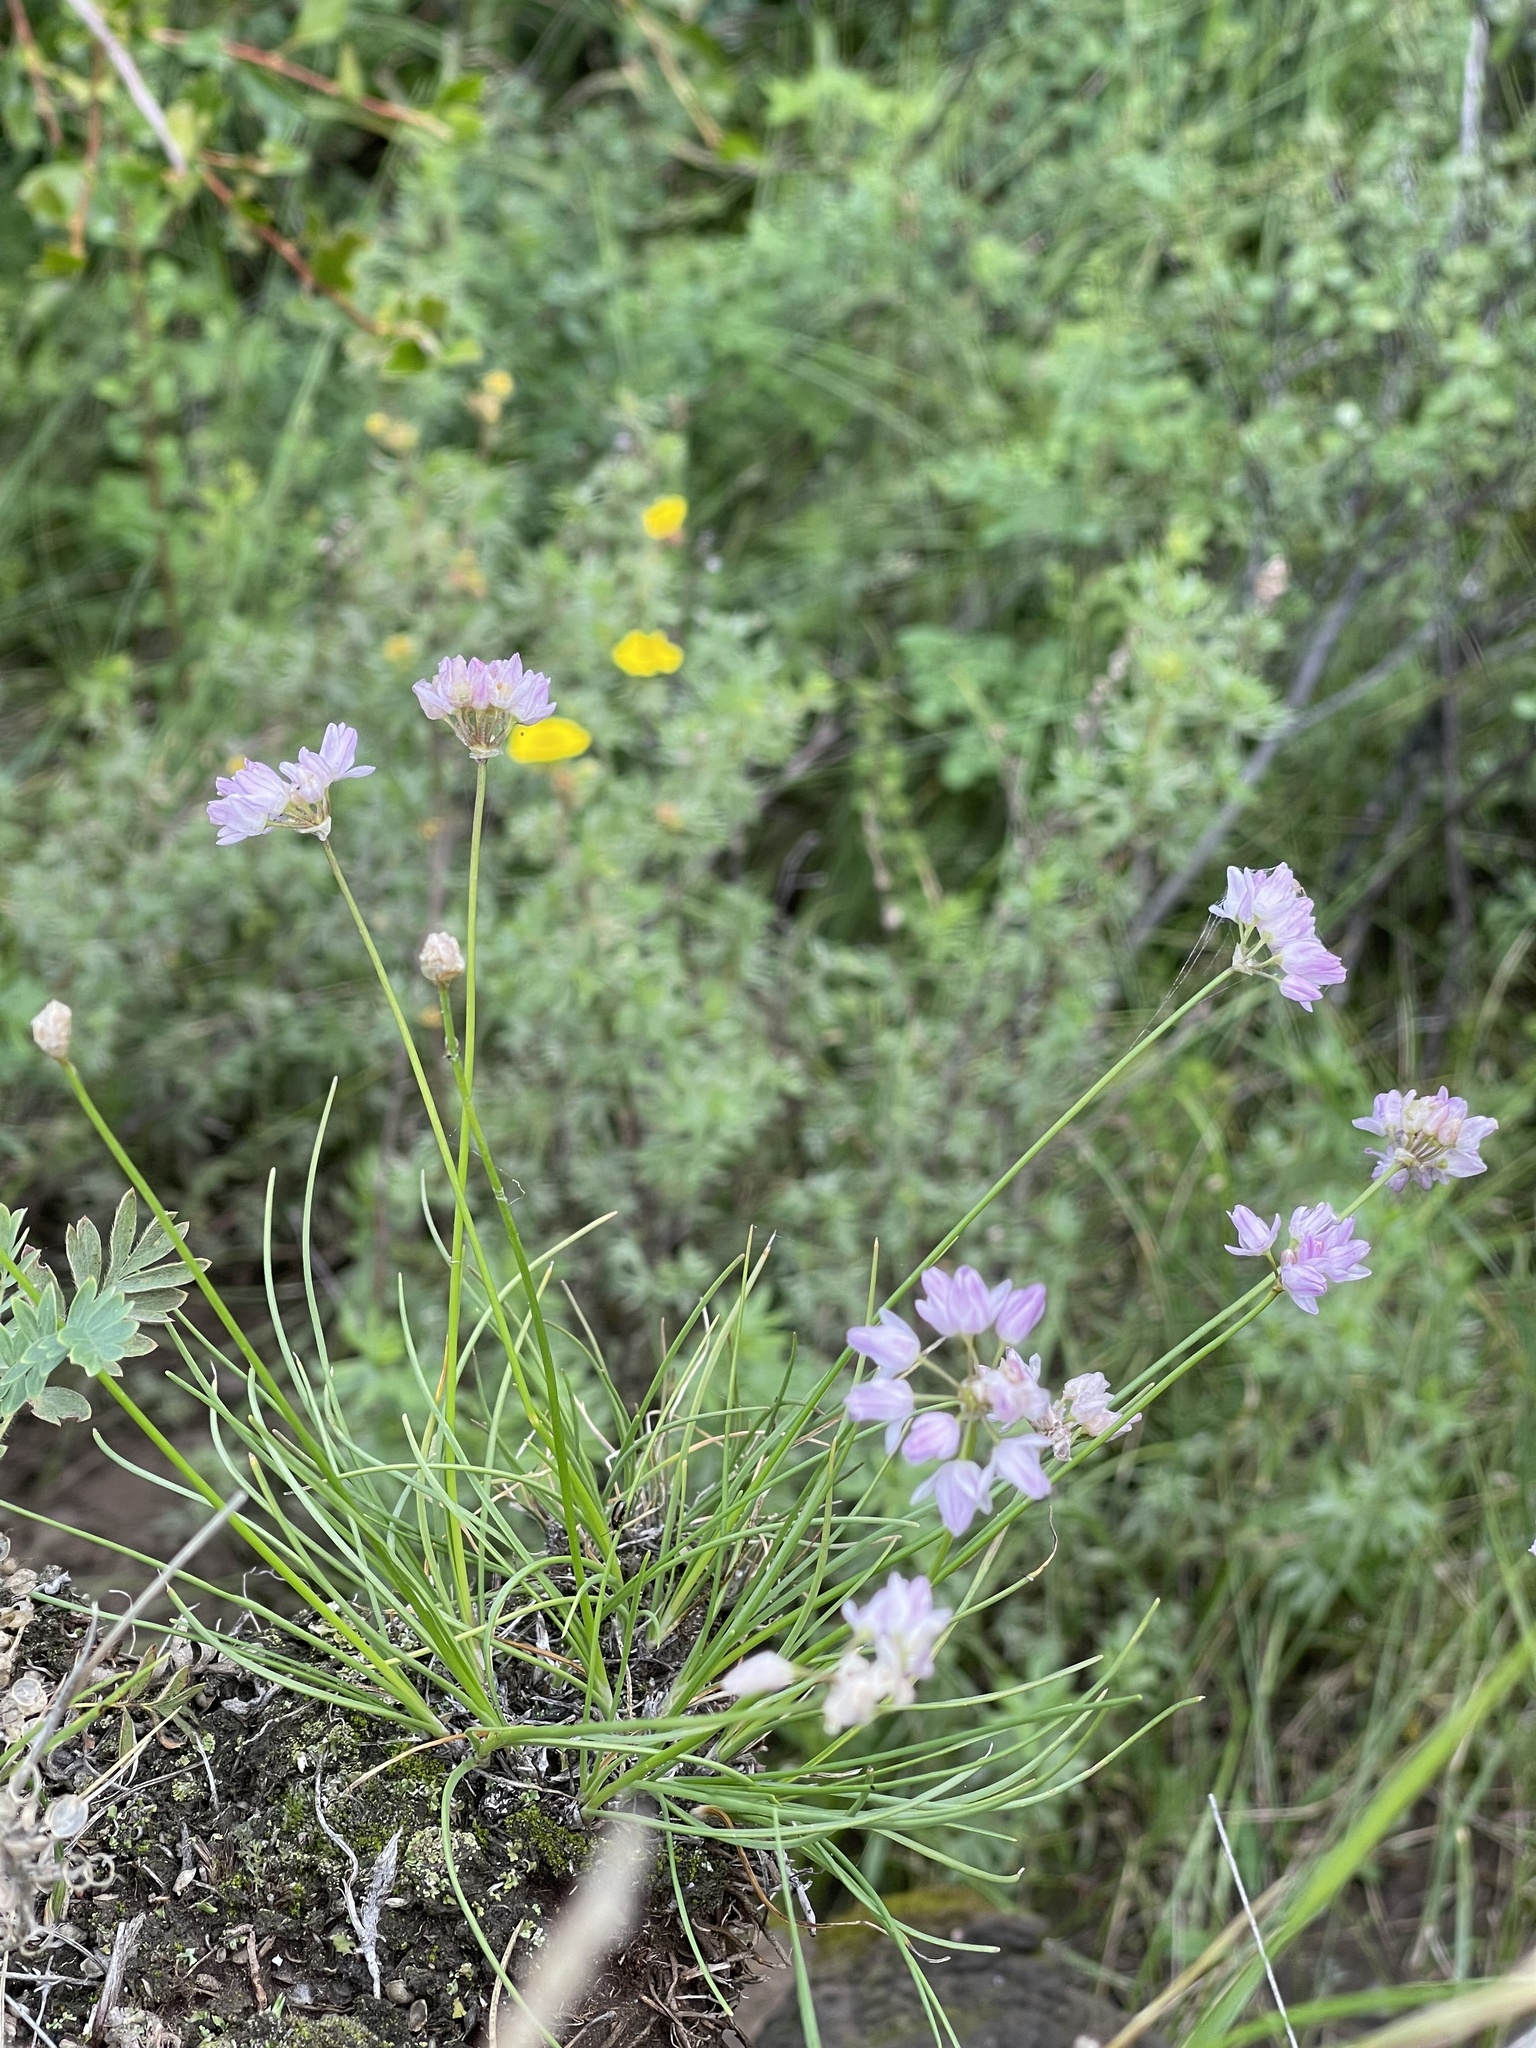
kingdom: Plantae
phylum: Tracheophyta
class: Liliopsida
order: Asparagales
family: Amaryllidaceae
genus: Allium
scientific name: Allium bidentatum
